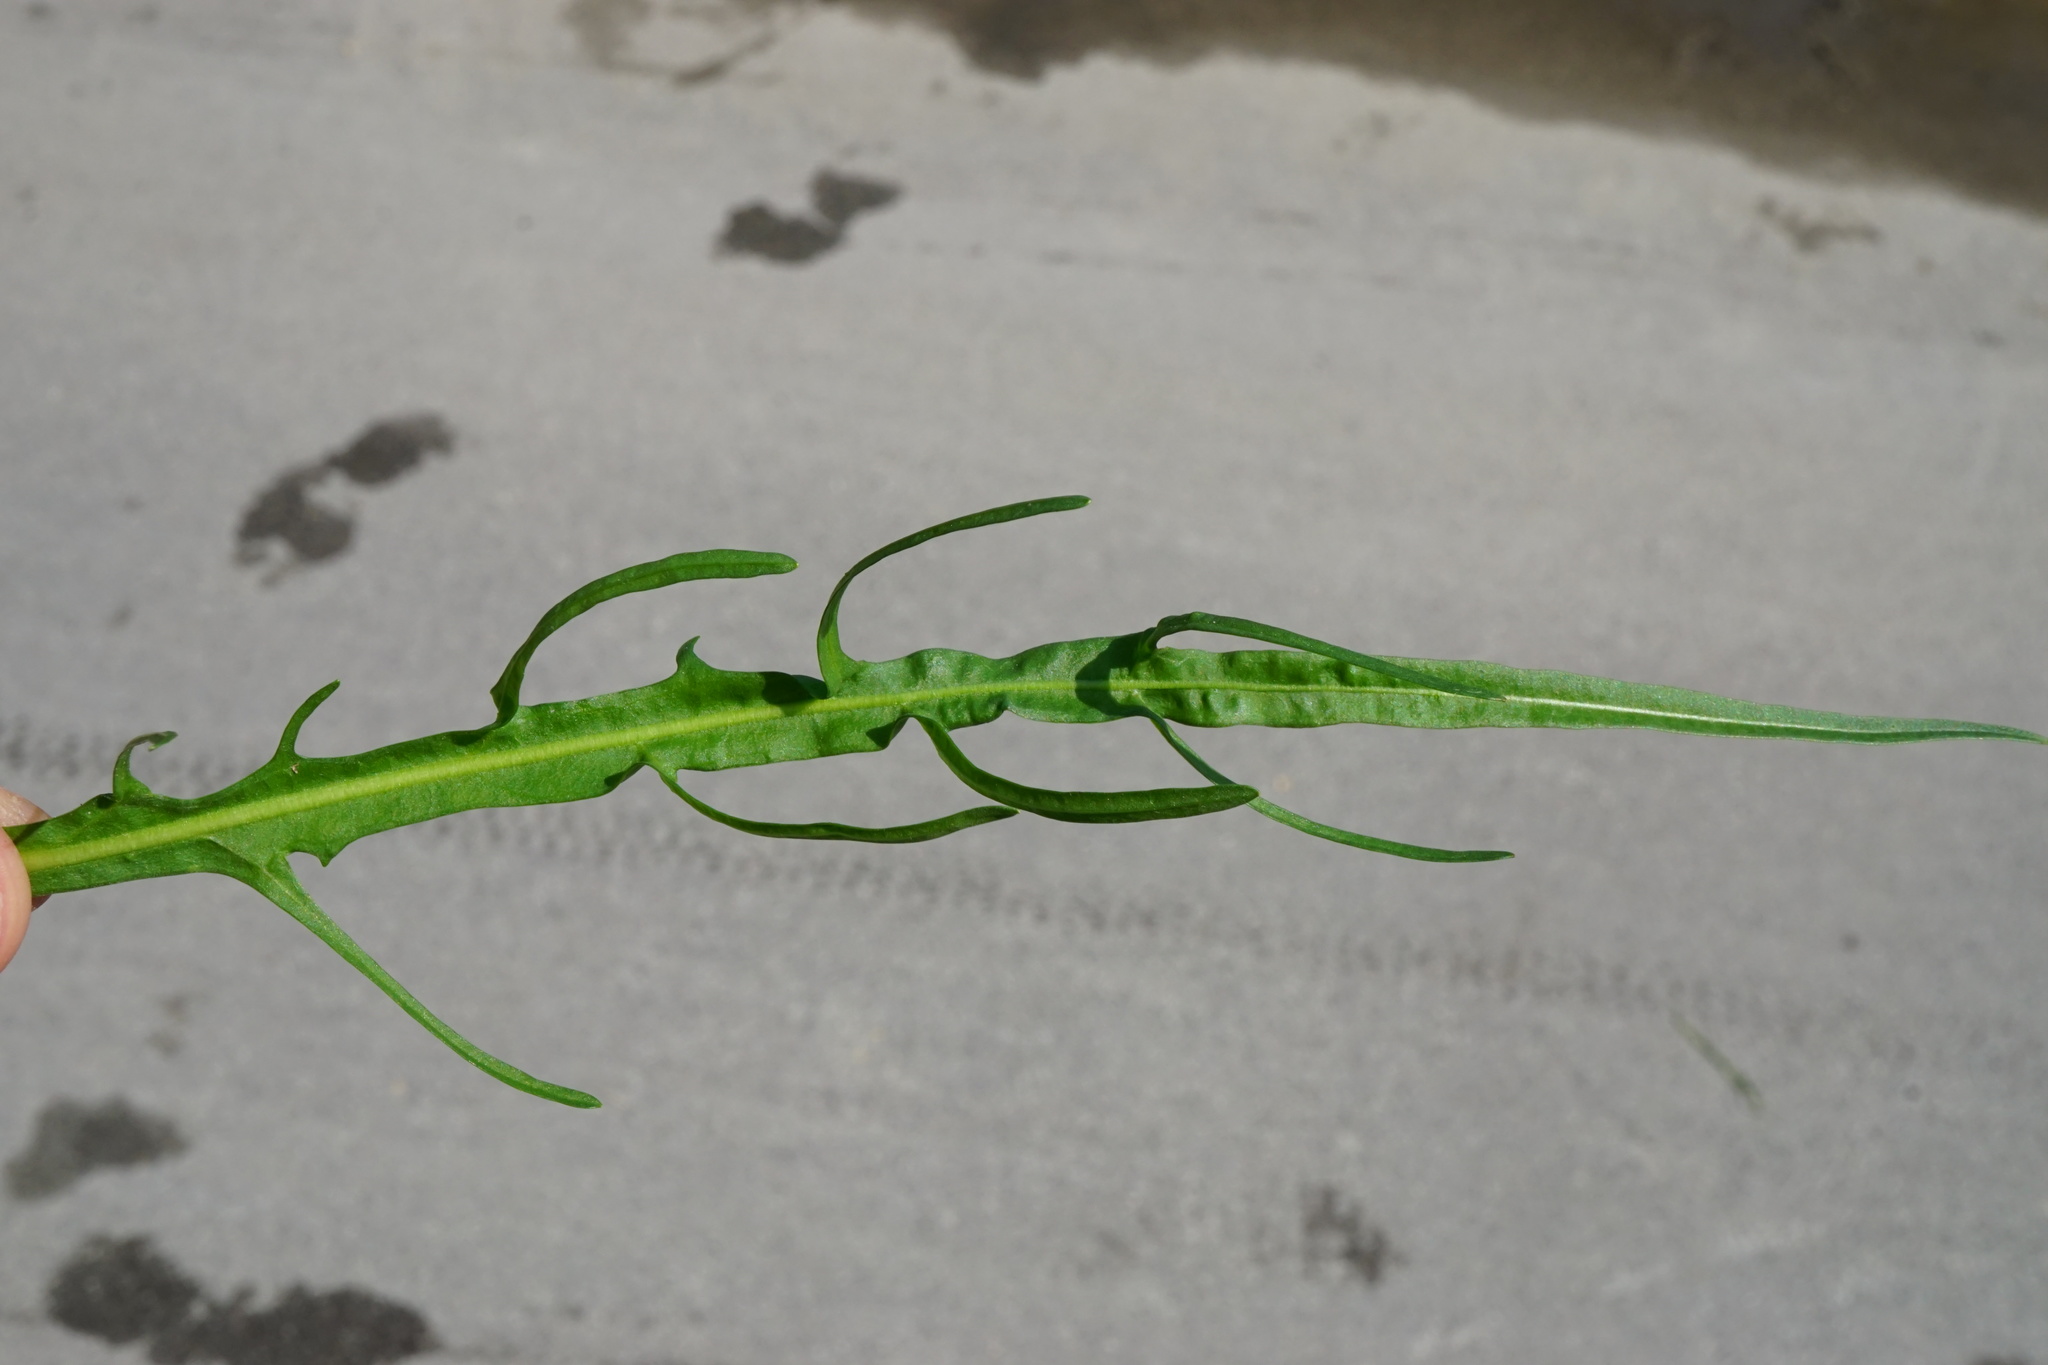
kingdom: Plantae
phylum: Tracheophyta
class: Magnoliopsida
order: Asterales
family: Asteraceae
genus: Scorzoneroides
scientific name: Scorzoneroides autumnalis
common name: Autumn hawkbit
